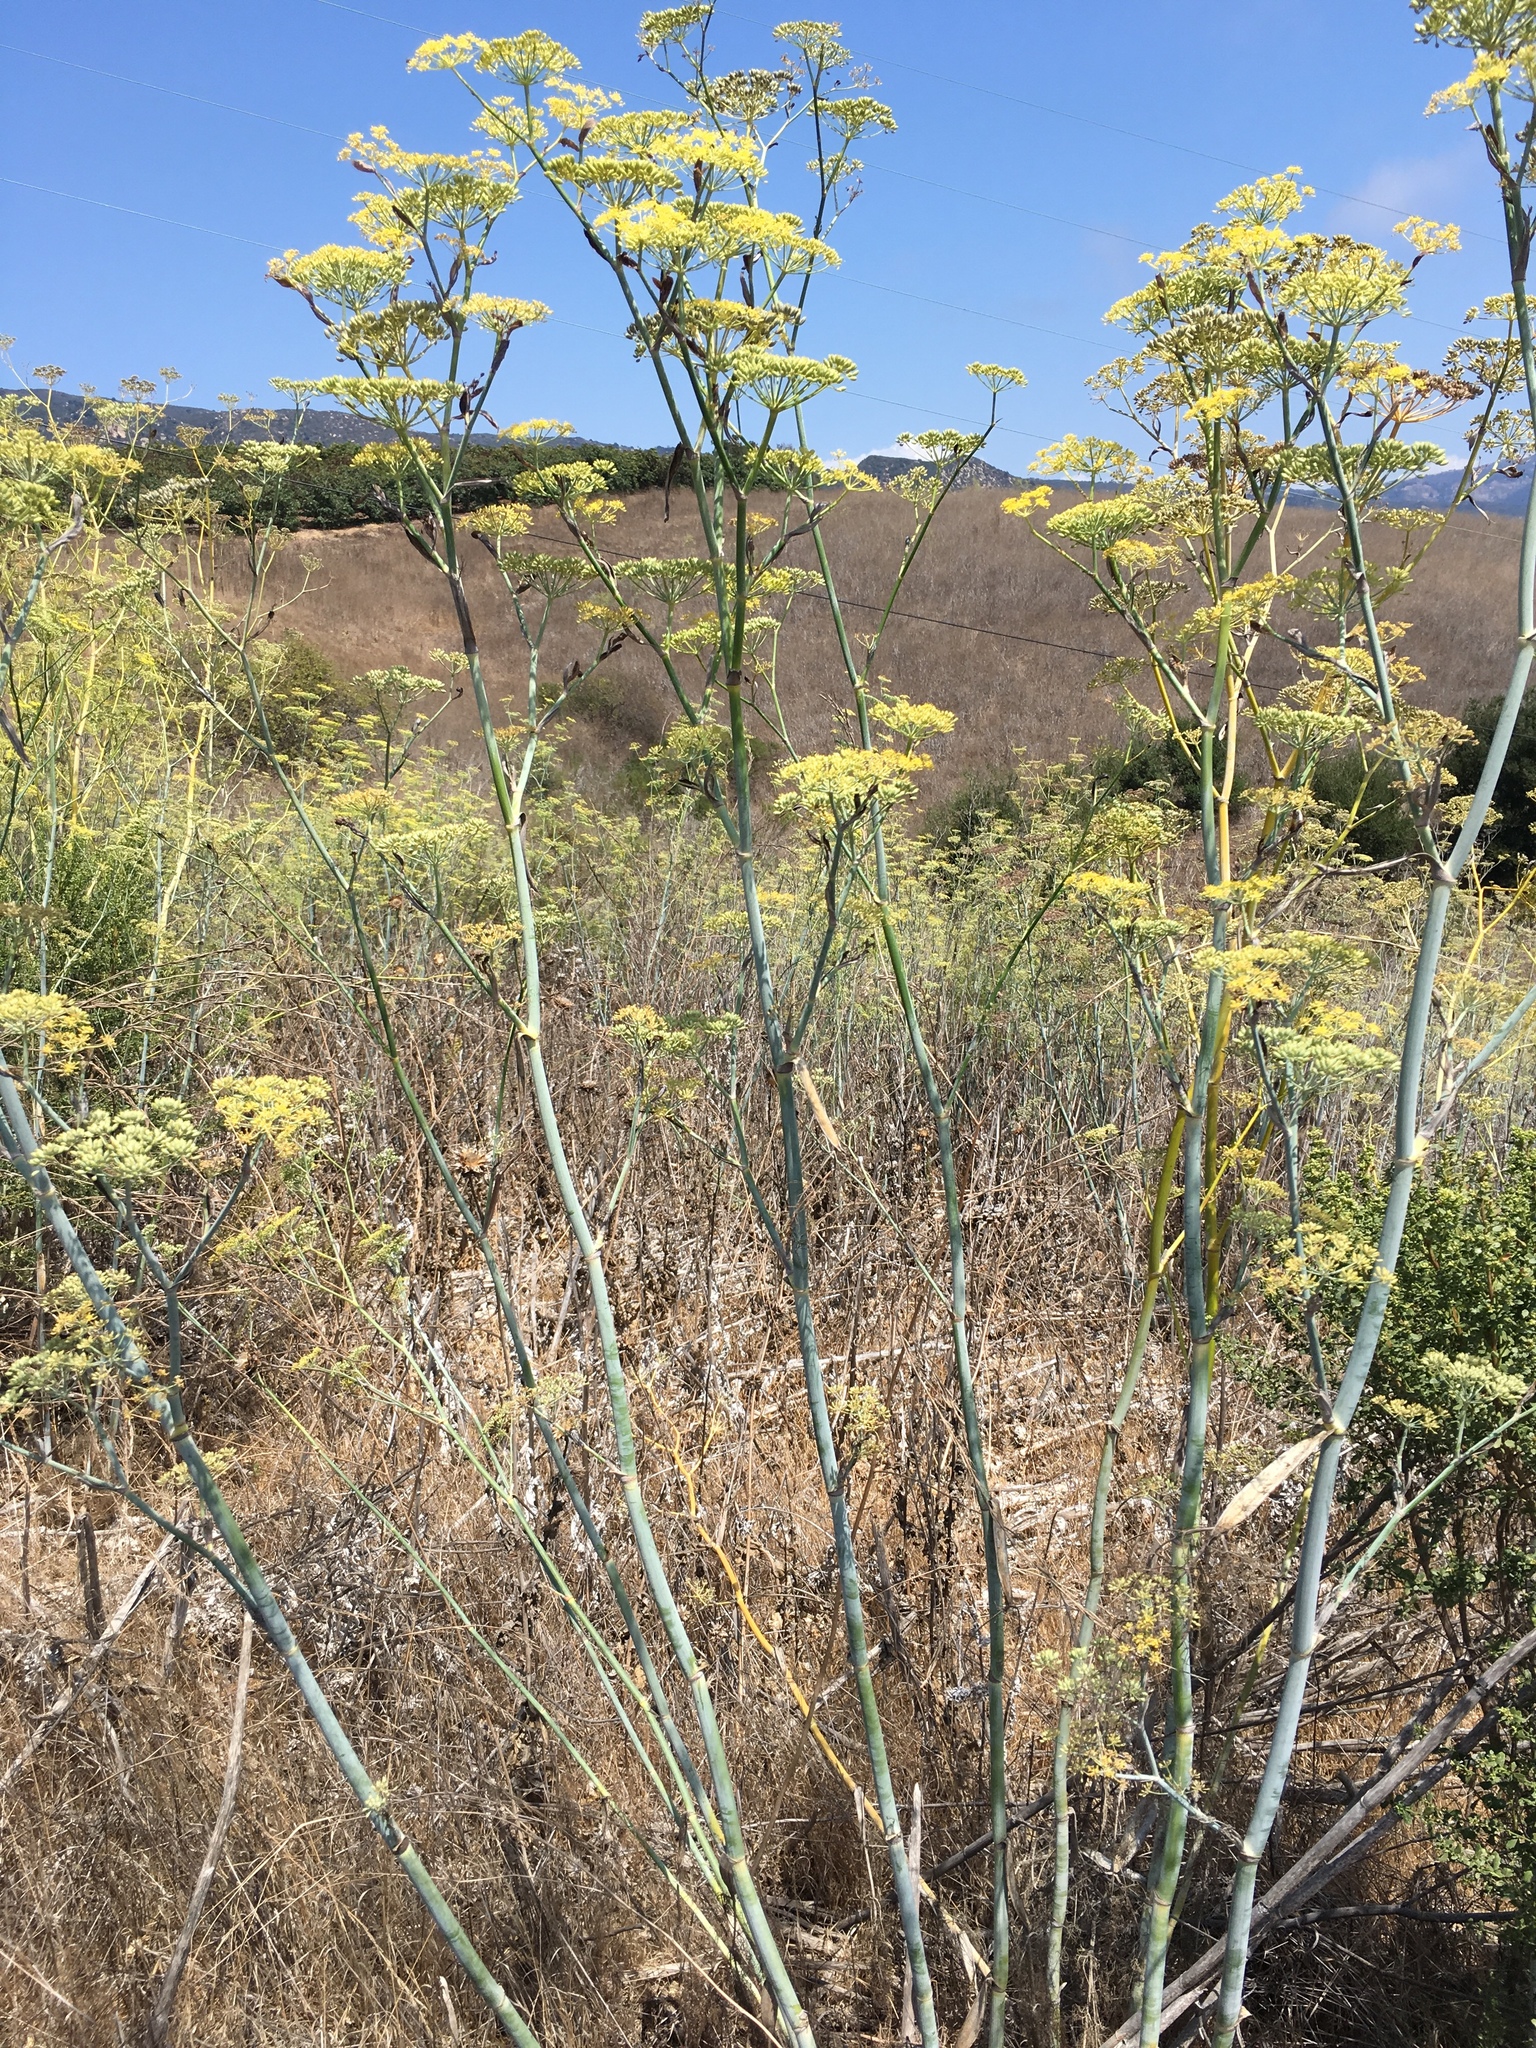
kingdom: Plantae
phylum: Tracheophyta
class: Magnoliopsida
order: Apiales
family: Apiaceae
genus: Foeniculum
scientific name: Foeniculum vulgare
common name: Fennel
